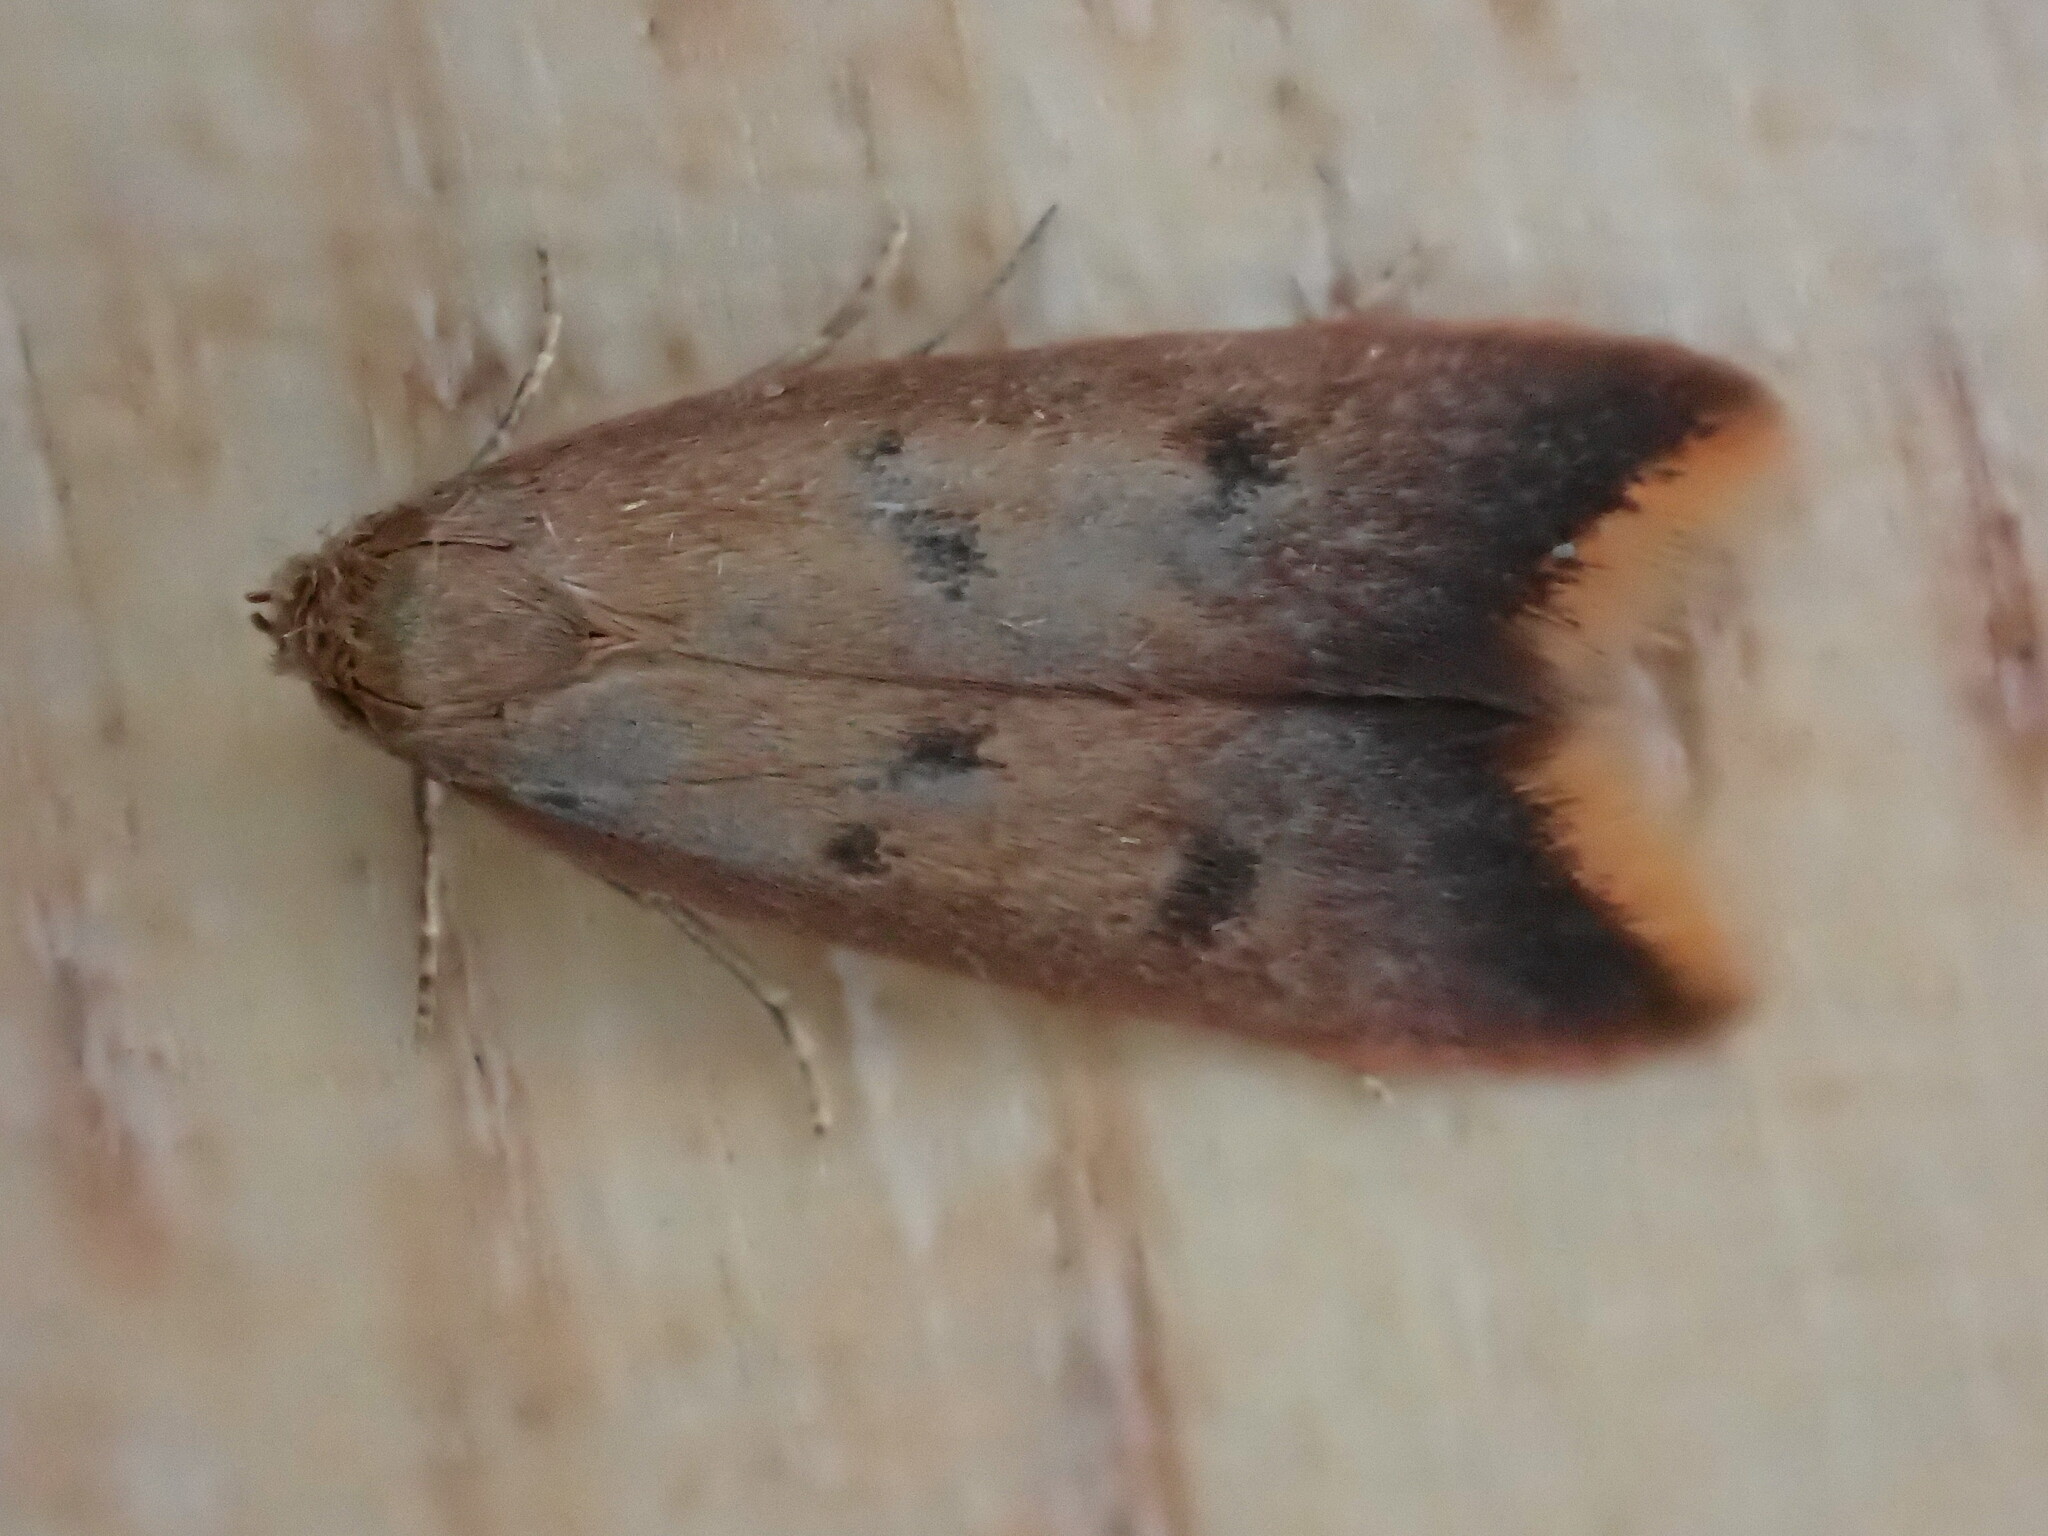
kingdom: Animalia
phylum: Arthropoda
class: Insecta
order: Lepidoptera
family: Oecophoridae
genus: Tachystola
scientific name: Tachystola acroxantha
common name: Ruddy streak
